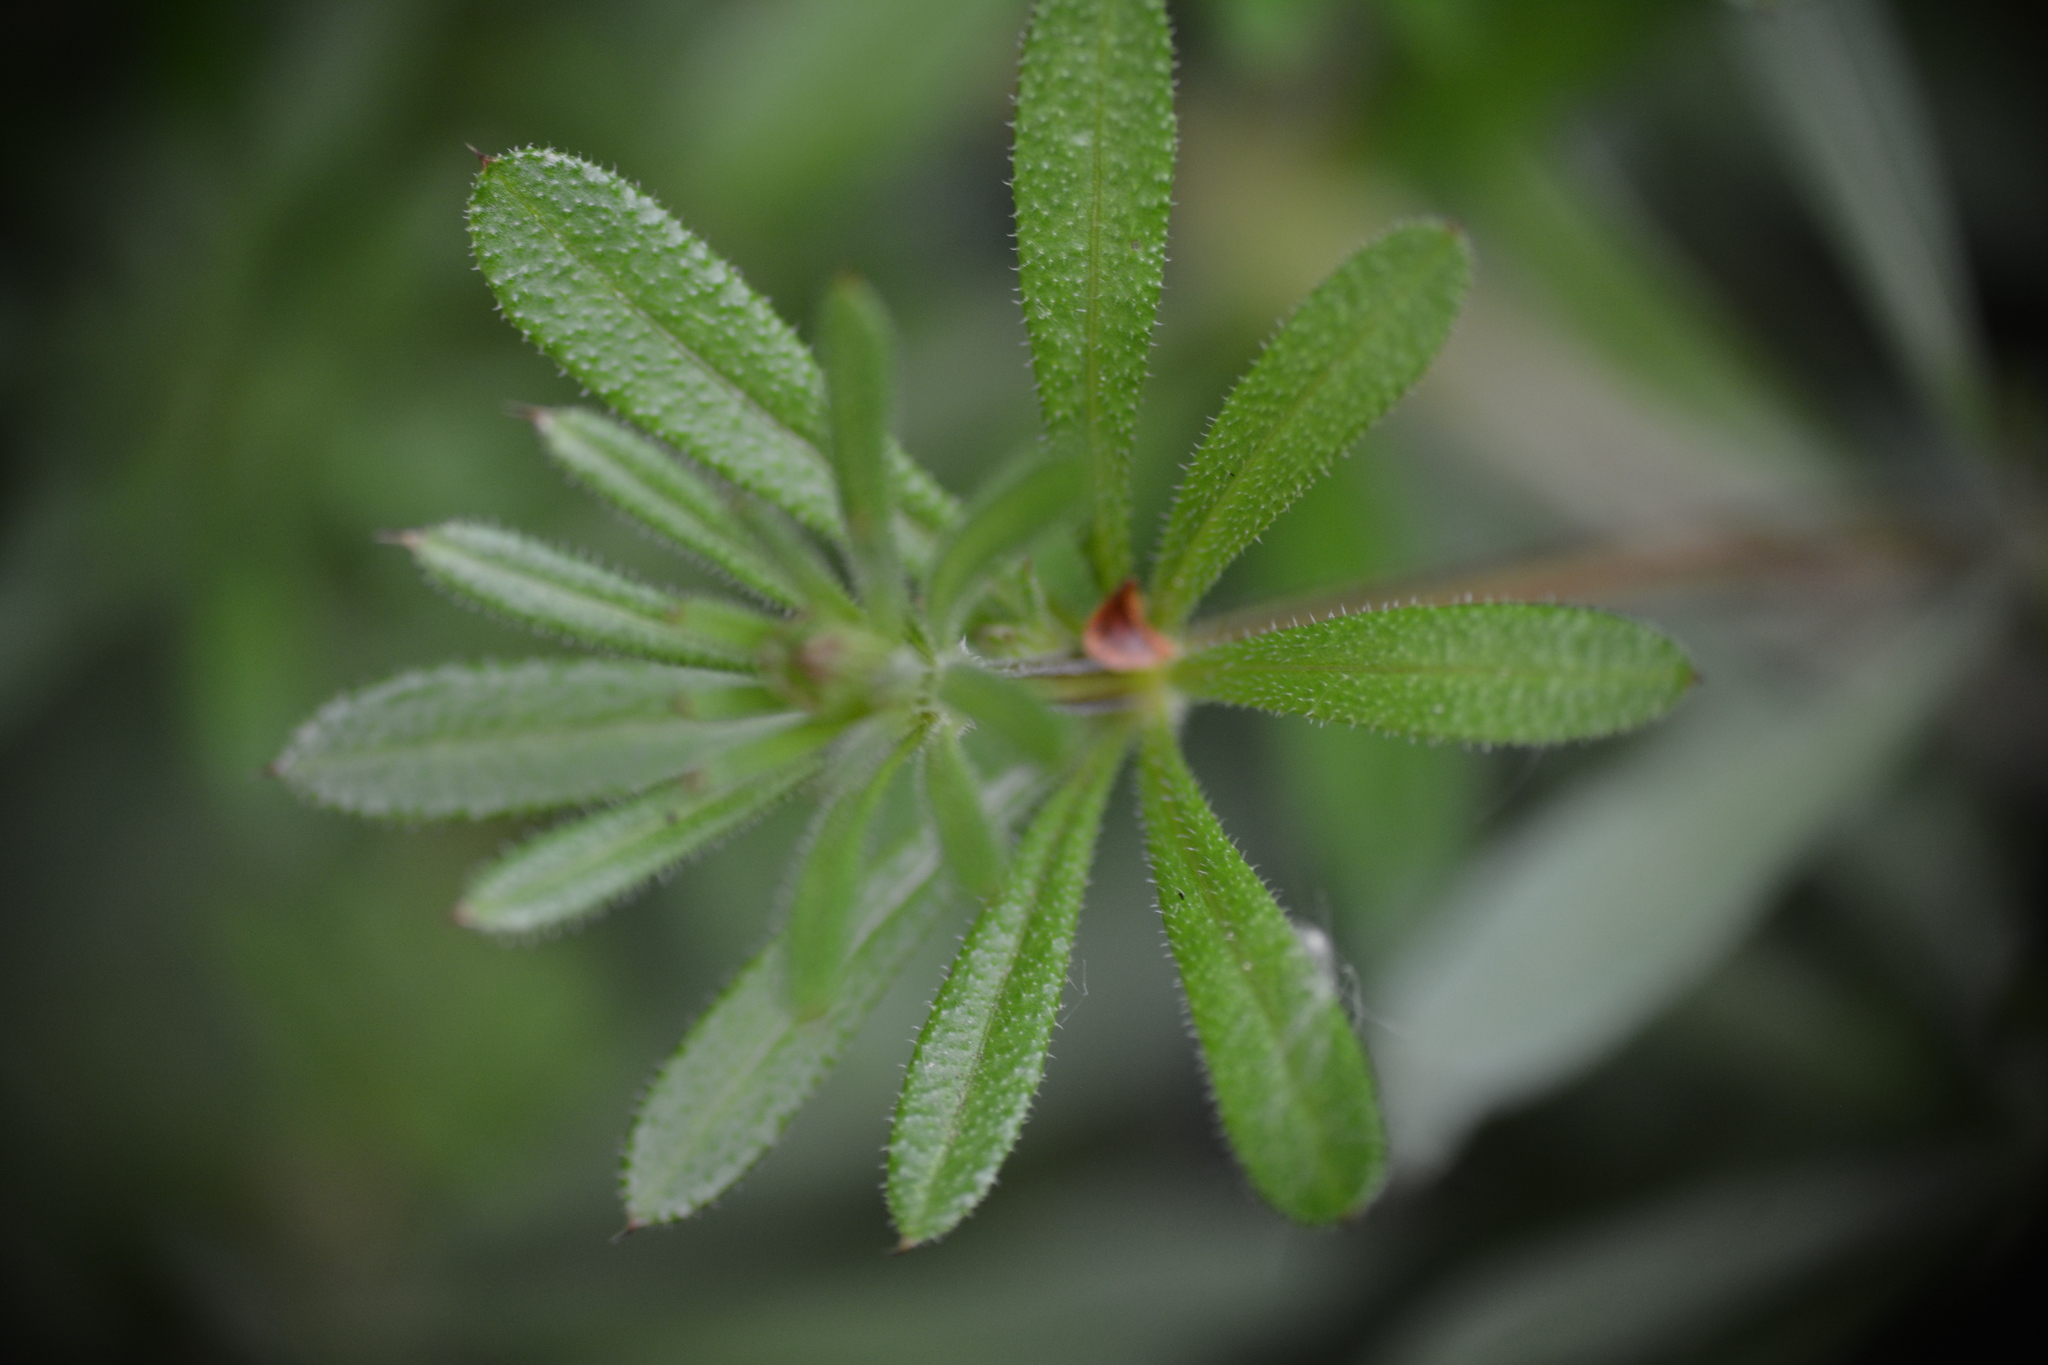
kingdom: Plantae
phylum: Tracheophyta
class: Magnoliopsida
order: Gentianales
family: Rubiaceae
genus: Galium
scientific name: Galium aparine
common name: Cleavers
